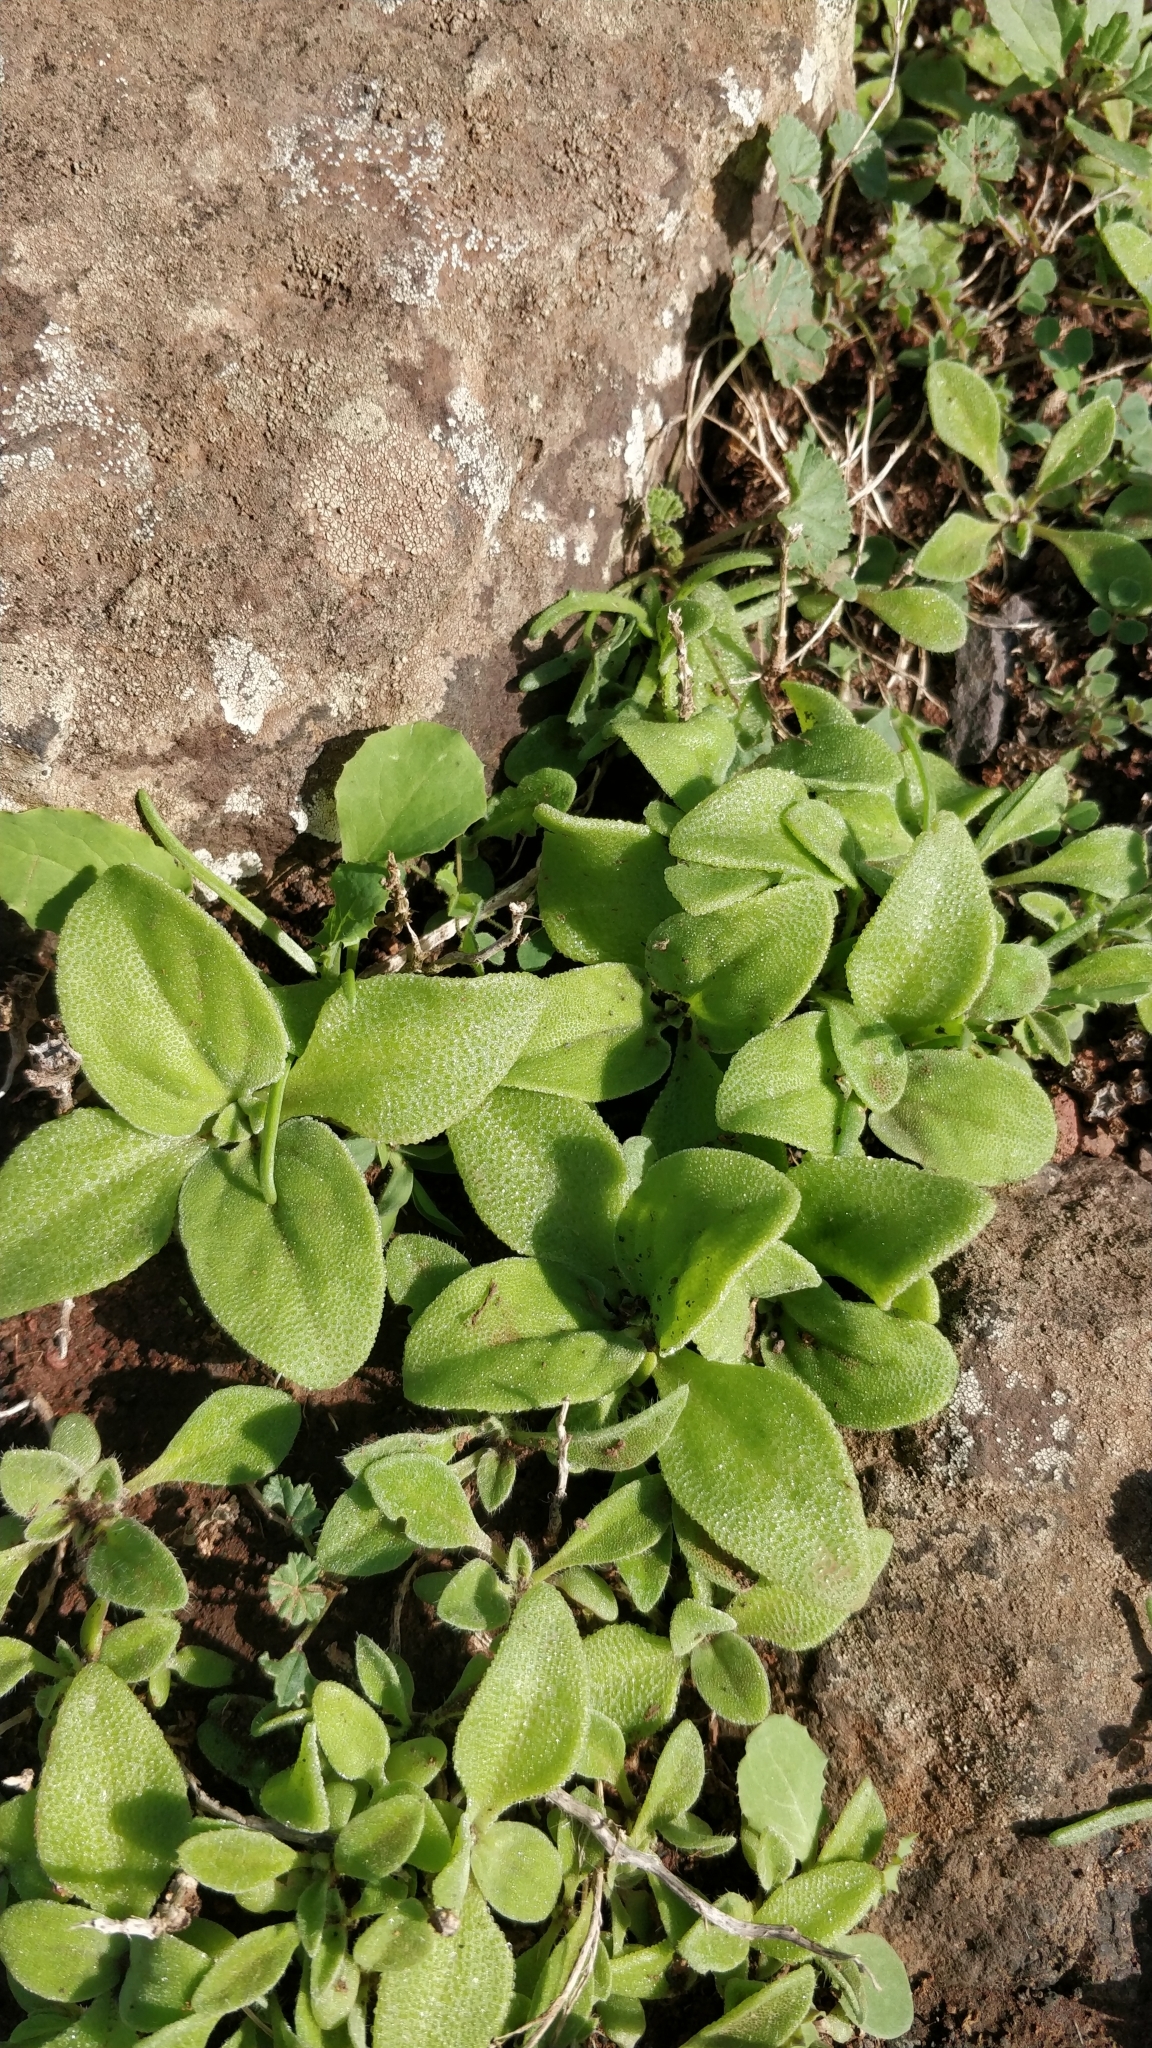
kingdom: Plantae
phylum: Tracheophyta
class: Magnoliopsida
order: Caryophyllales
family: Aizoaceae
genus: Mesembryanthemum
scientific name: Mesembryanthemum crystallinum
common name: Common iceplant
